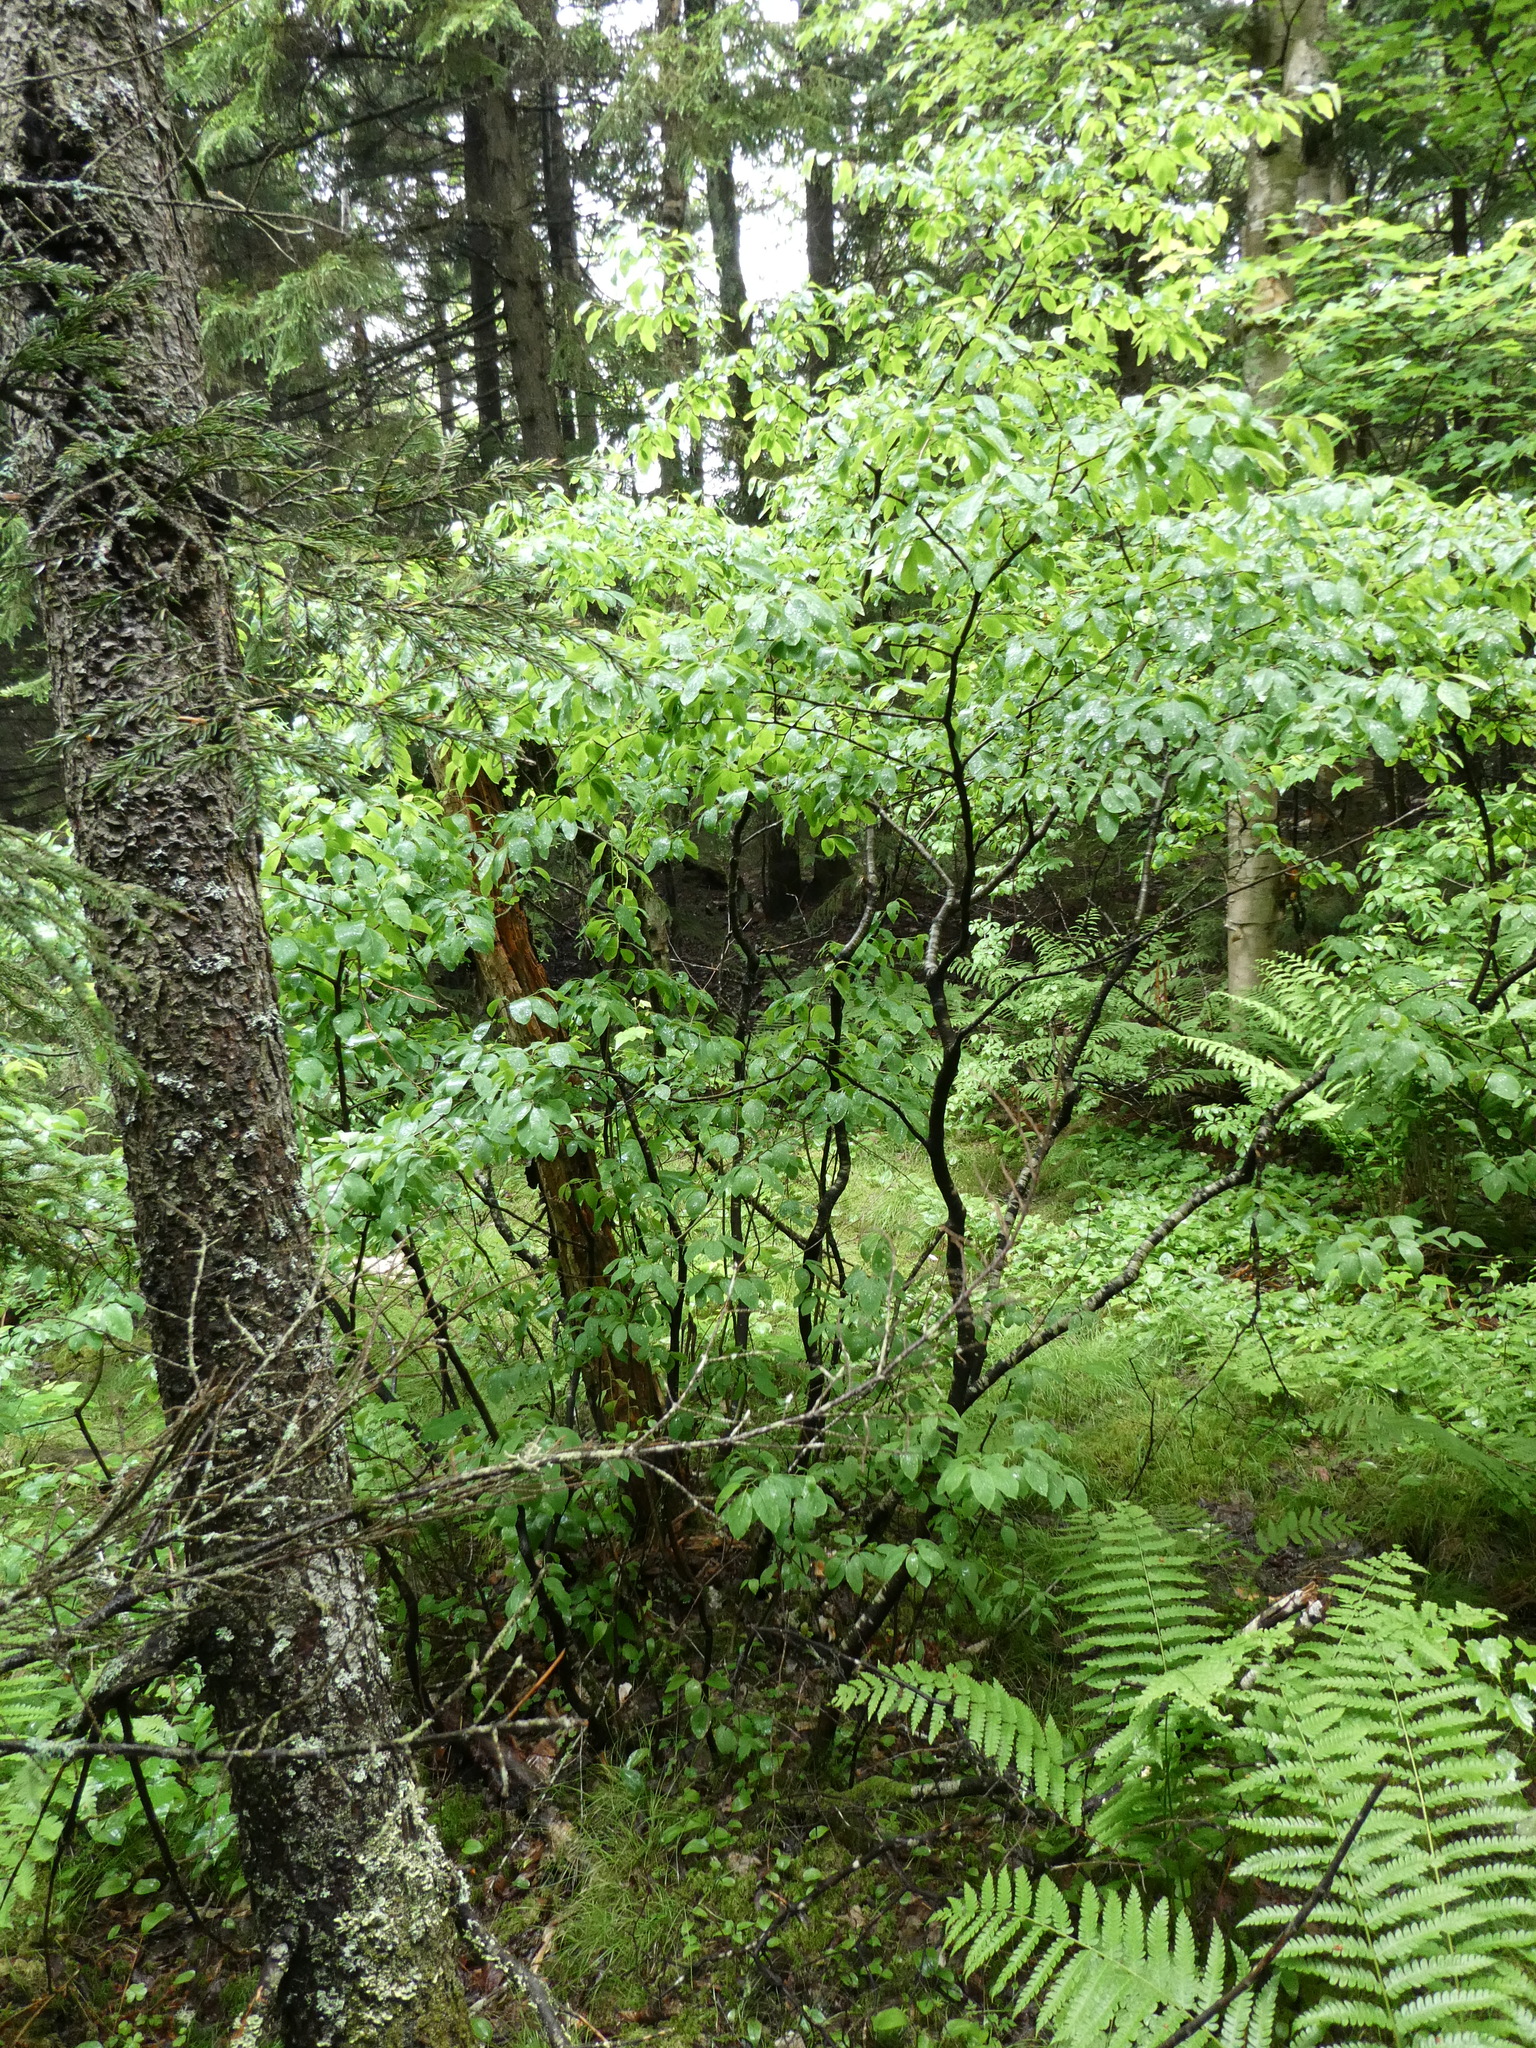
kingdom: Plantae
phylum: Tracheophyta
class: Magnoliopsida
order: Aquifoliales
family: Aquifoliaceae
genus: Ilex
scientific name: Ilex mucronata
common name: Catberry
